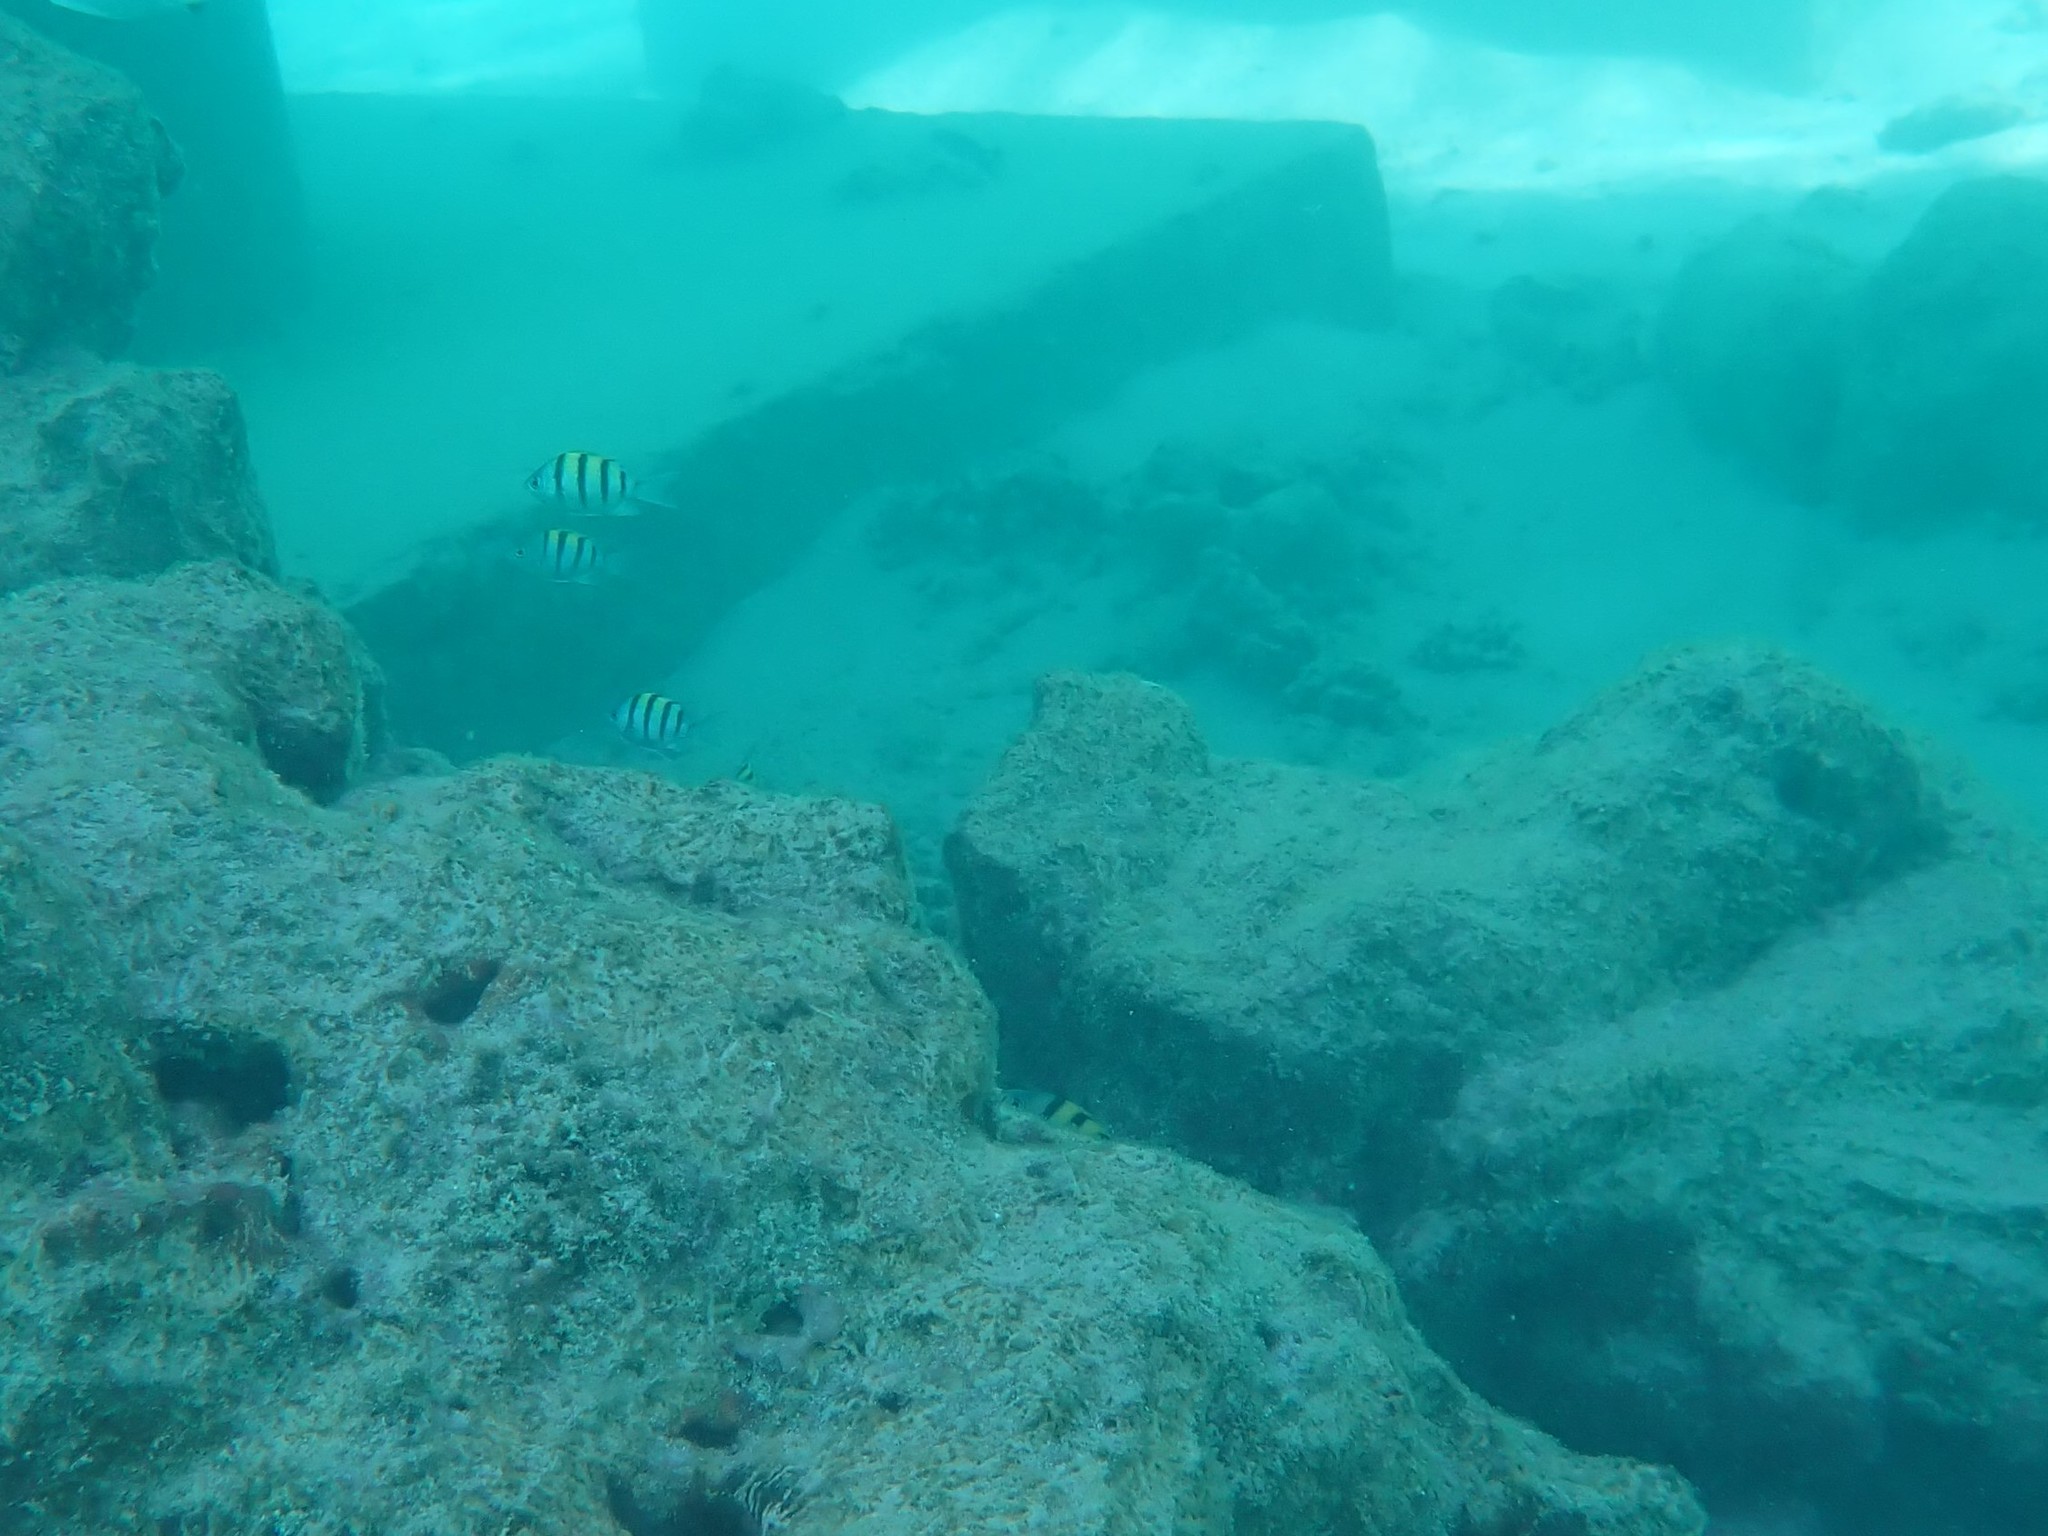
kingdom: Animalia
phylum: Chordata
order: Perciformes
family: Pomacentridae
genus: Abudefduf
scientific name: Abudefduf vaigiensis
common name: Indo-pacific sergeant
